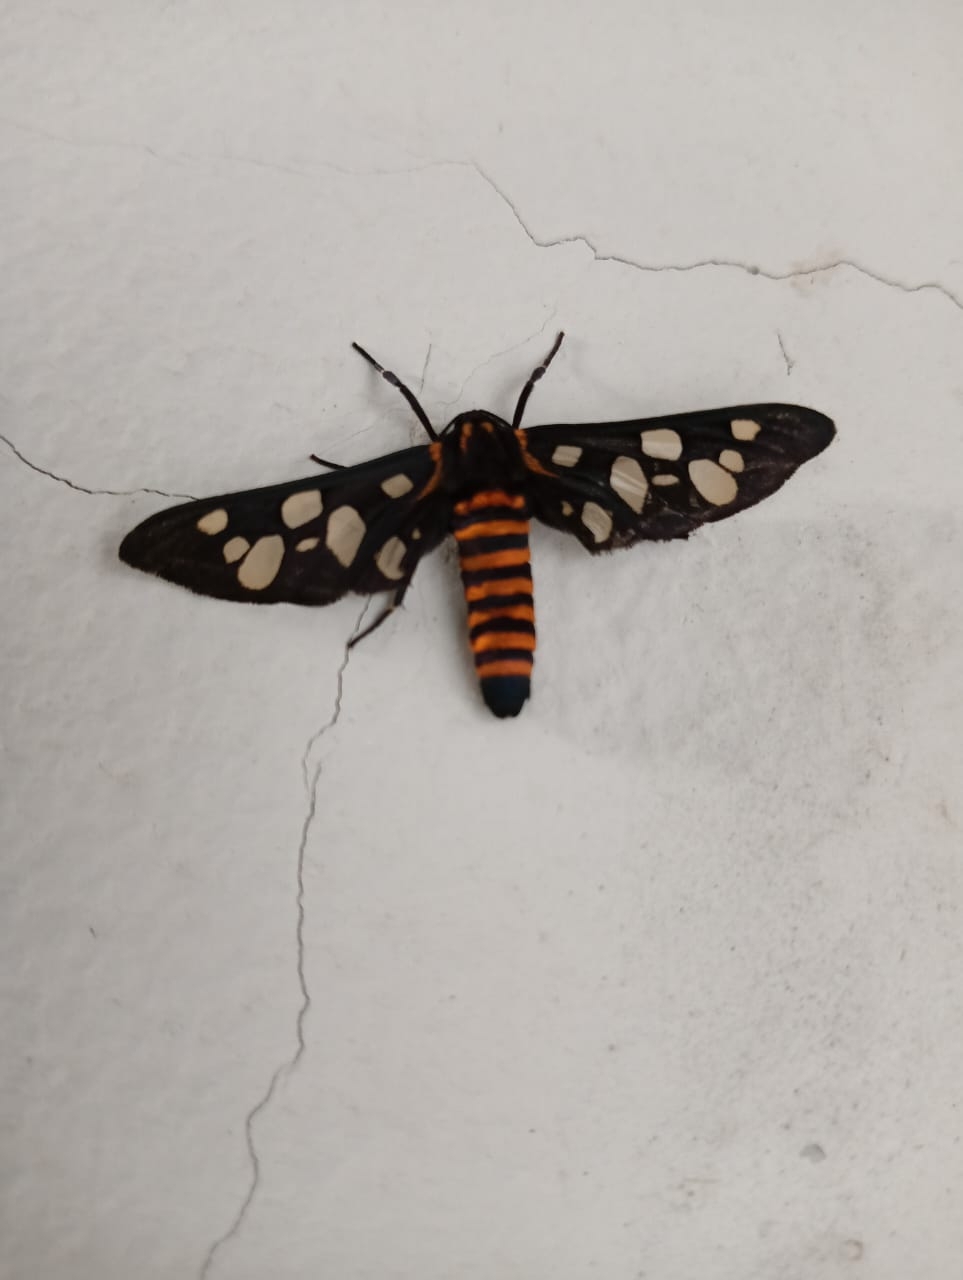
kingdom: Animalia
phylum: Arthropoda
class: Insecta
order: Lepidoptera
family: Erebidae
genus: Amata
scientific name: Amata passalis
